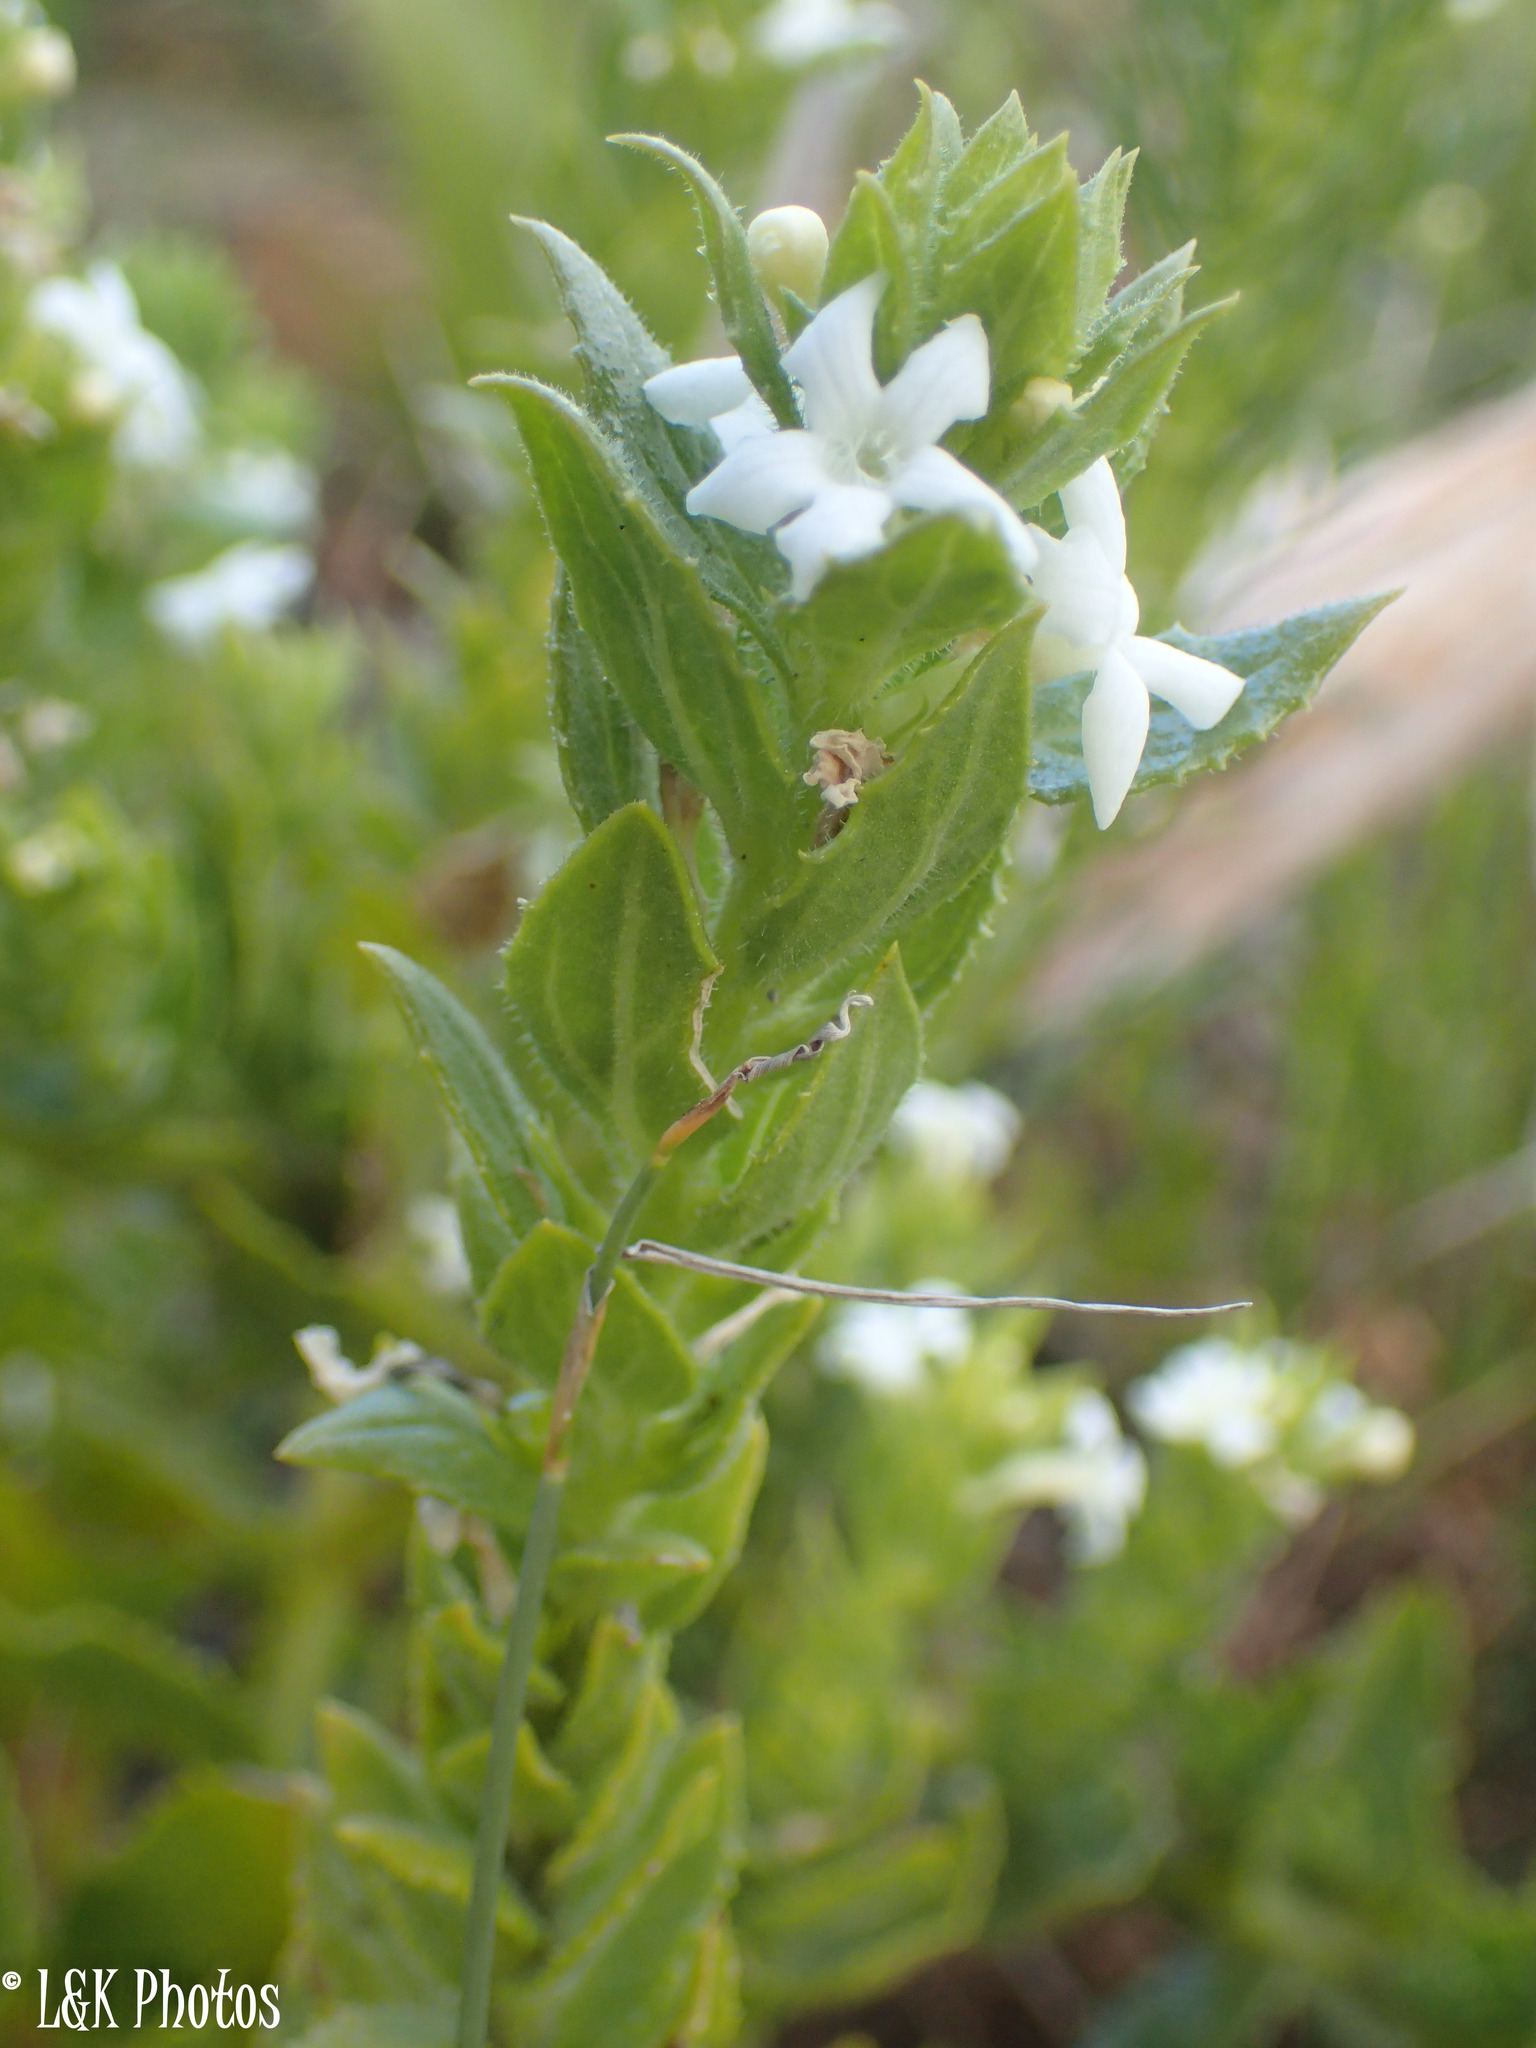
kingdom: Plantae
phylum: Tracheophyta
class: Magnoliopsida
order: Lamiales
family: Scrophulariaceae
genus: Oftia
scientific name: Oftia africana
